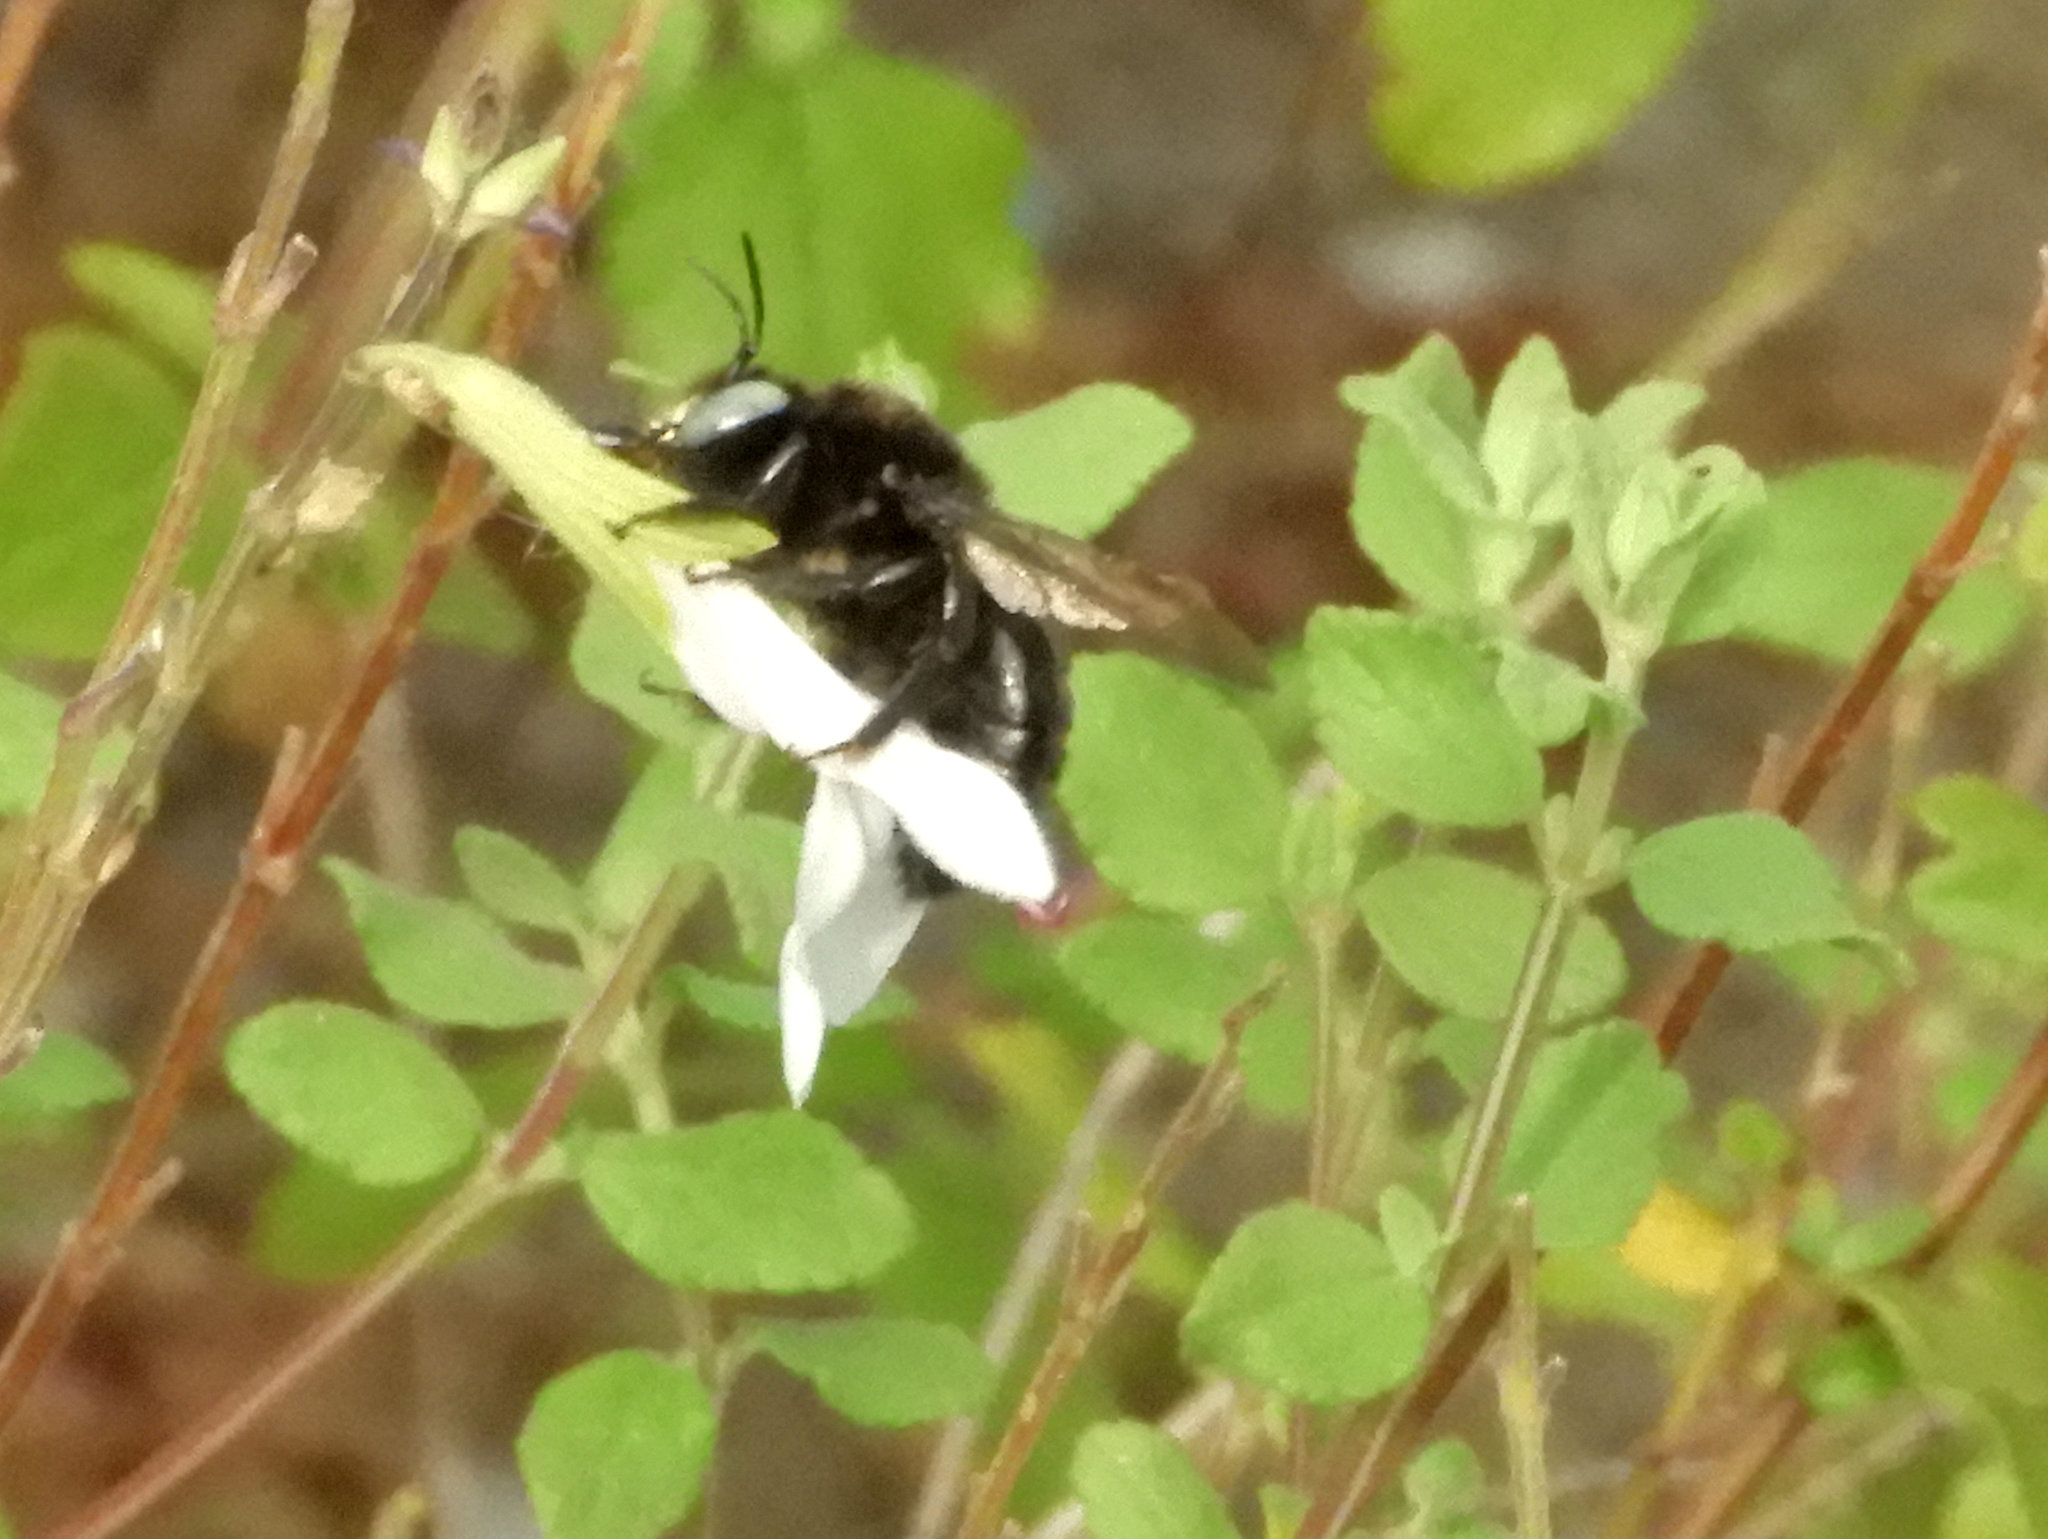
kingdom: Animalia
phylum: Arthropoda
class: Insecta
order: Hymenoptera
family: Apidae
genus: Xylocopa
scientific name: Xylocopa tabaniformis
